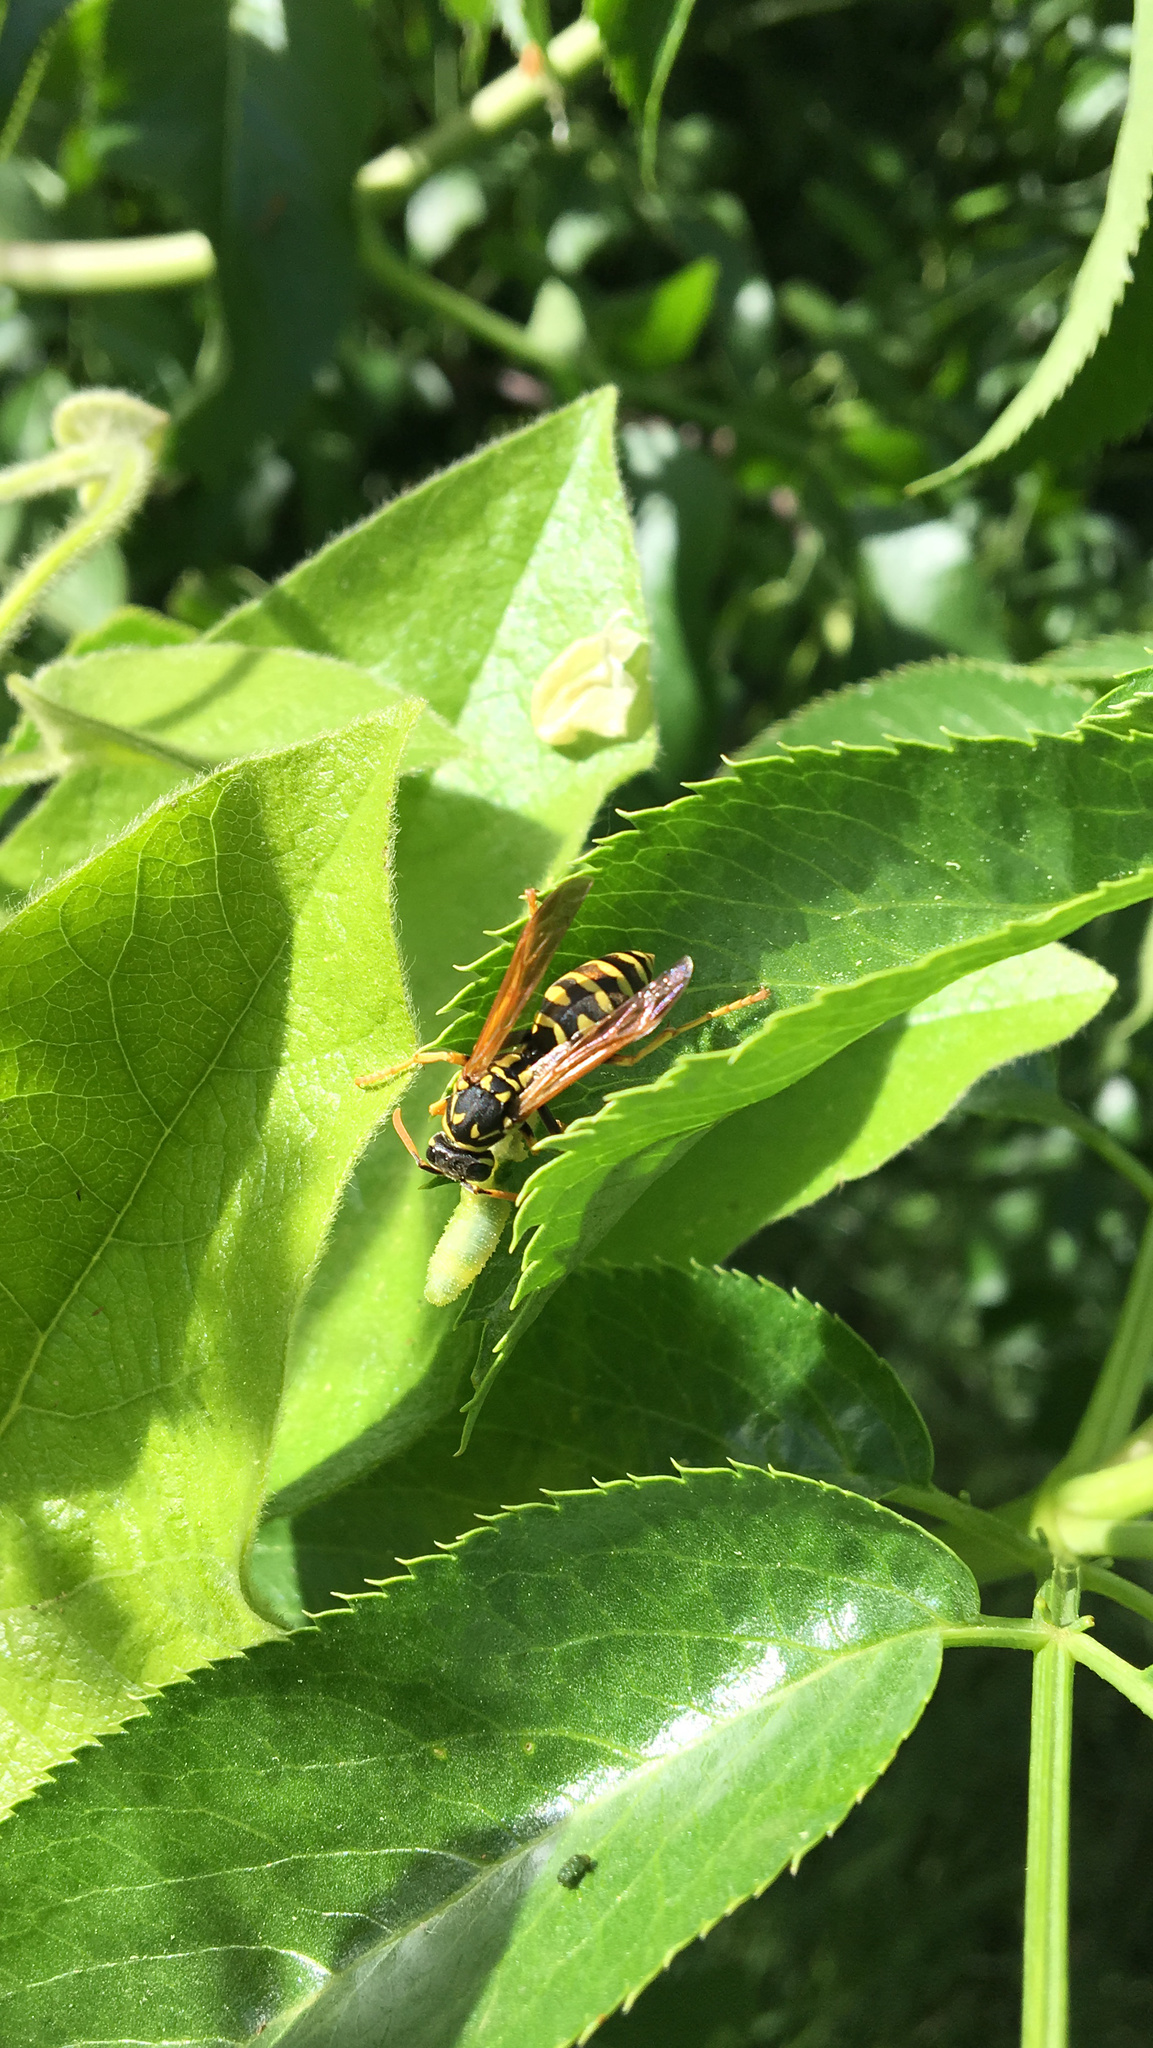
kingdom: Animalia
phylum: Arthropoda
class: Insecta
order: Hymenoptera
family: Eumenidae
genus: Polistes
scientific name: Polistes dominula
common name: Paper wasp
